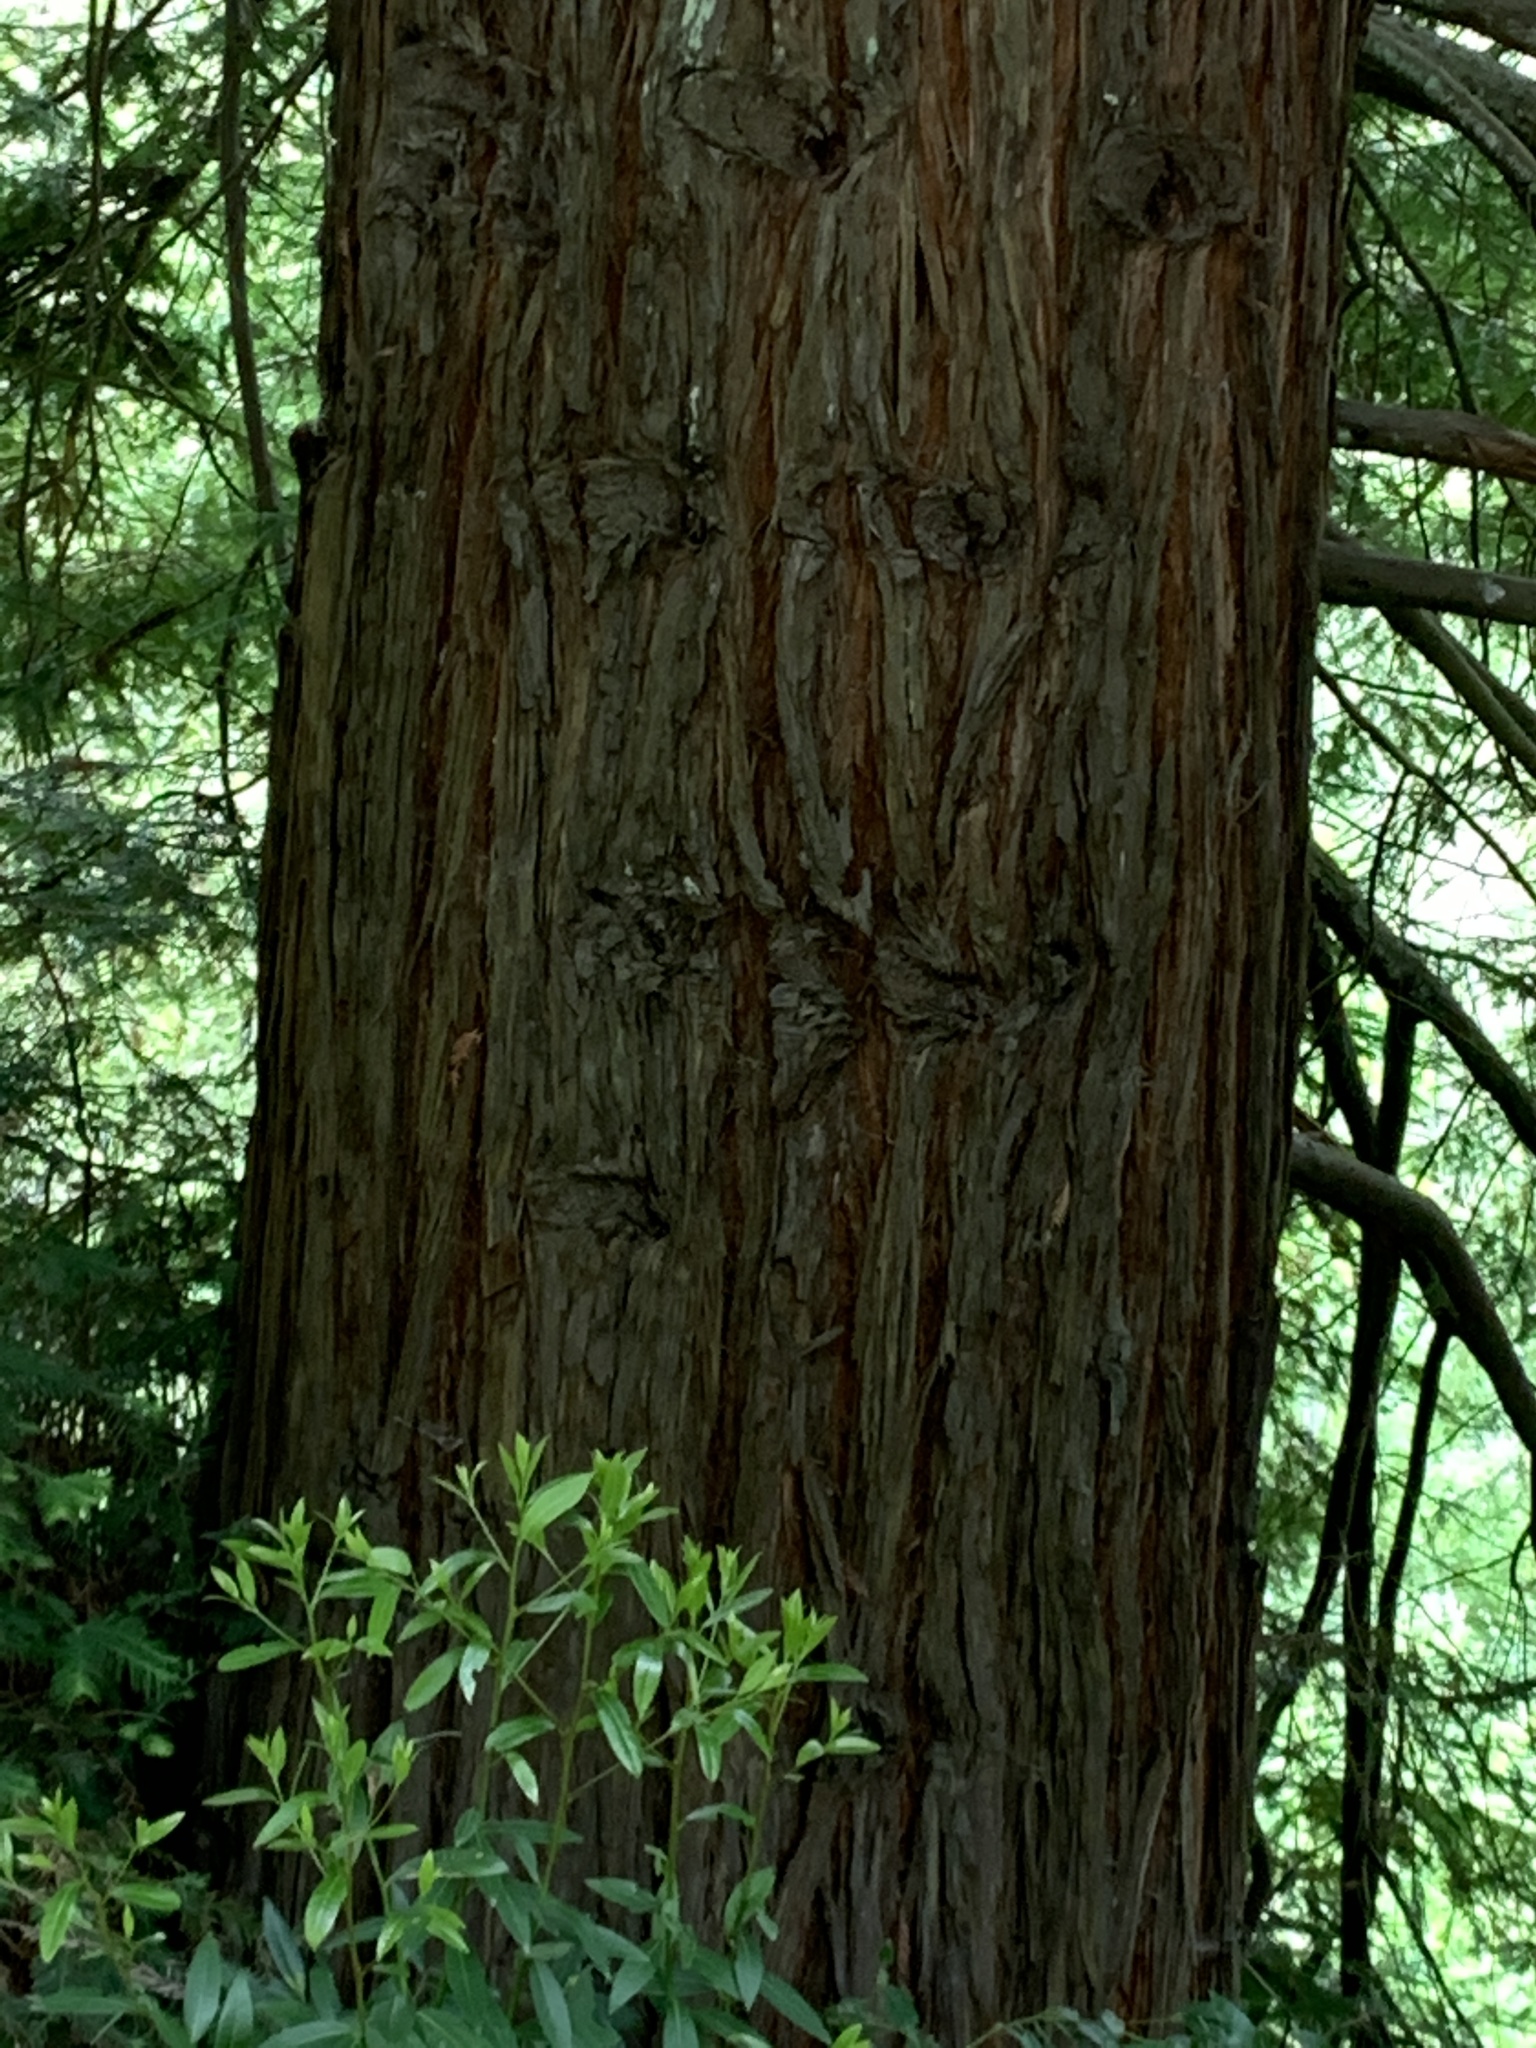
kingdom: Plantae
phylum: Tracheophyta
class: Pinopsida
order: Pinales
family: Cupressaceae
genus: Sequoia
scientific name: Sequoia sempervirens
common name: Coast redwood
